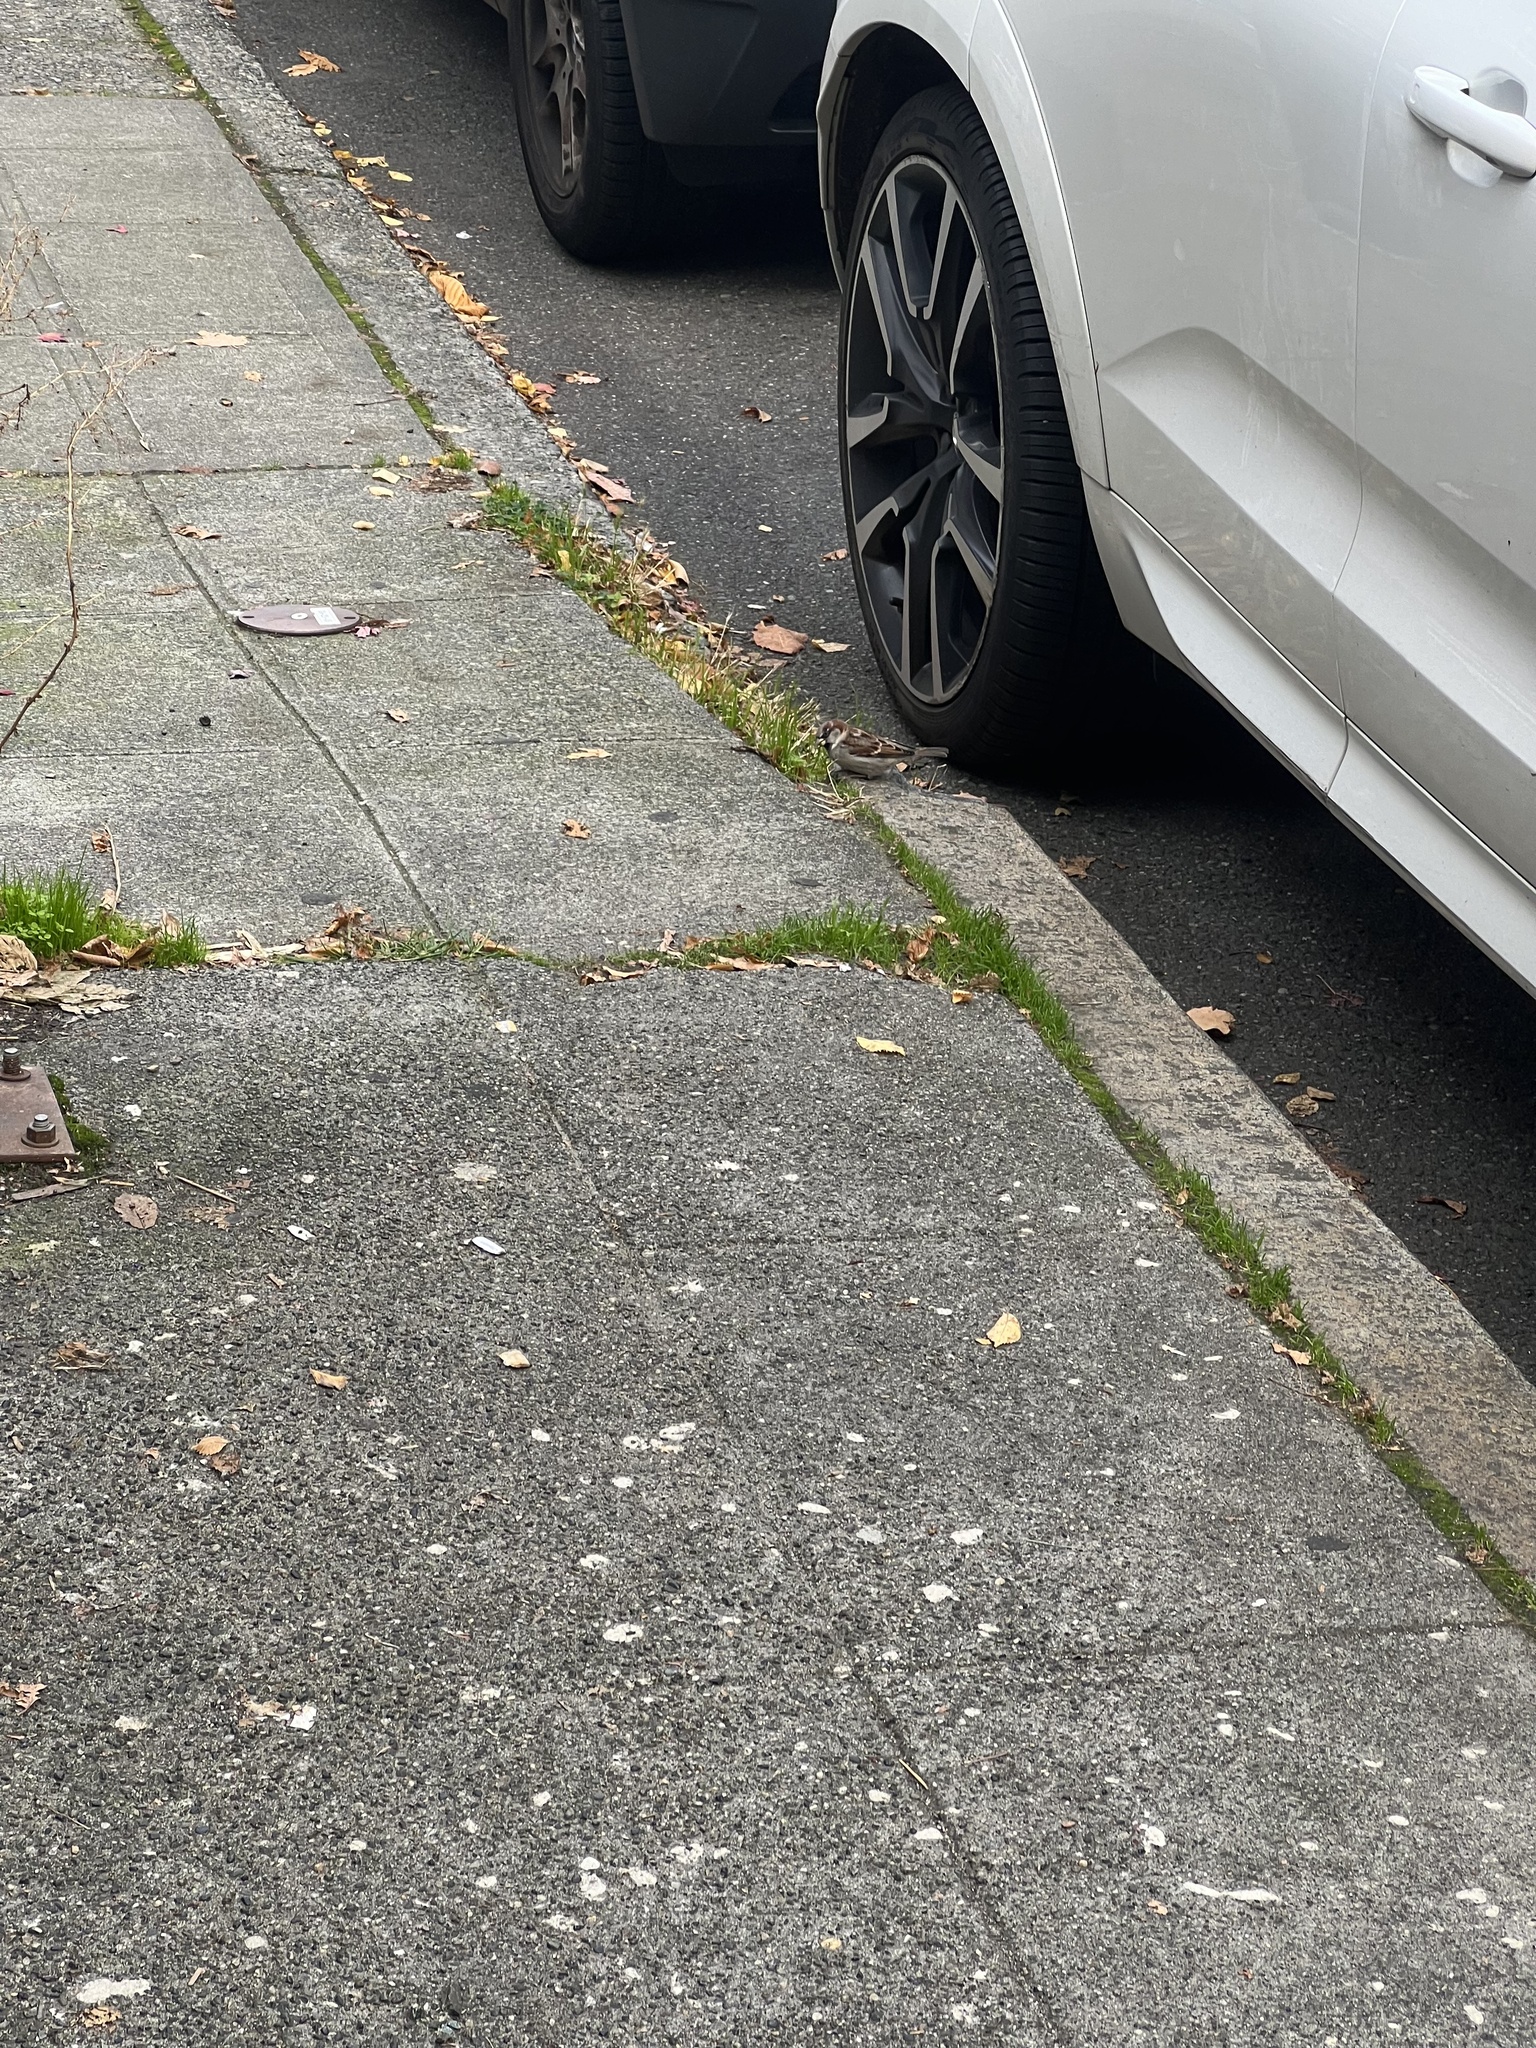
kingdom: Animalia
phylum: Chordata
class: Aves
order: Passeriformes
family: Passeridae
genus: Passer
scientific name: Passer domesticus
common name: House sparrow
